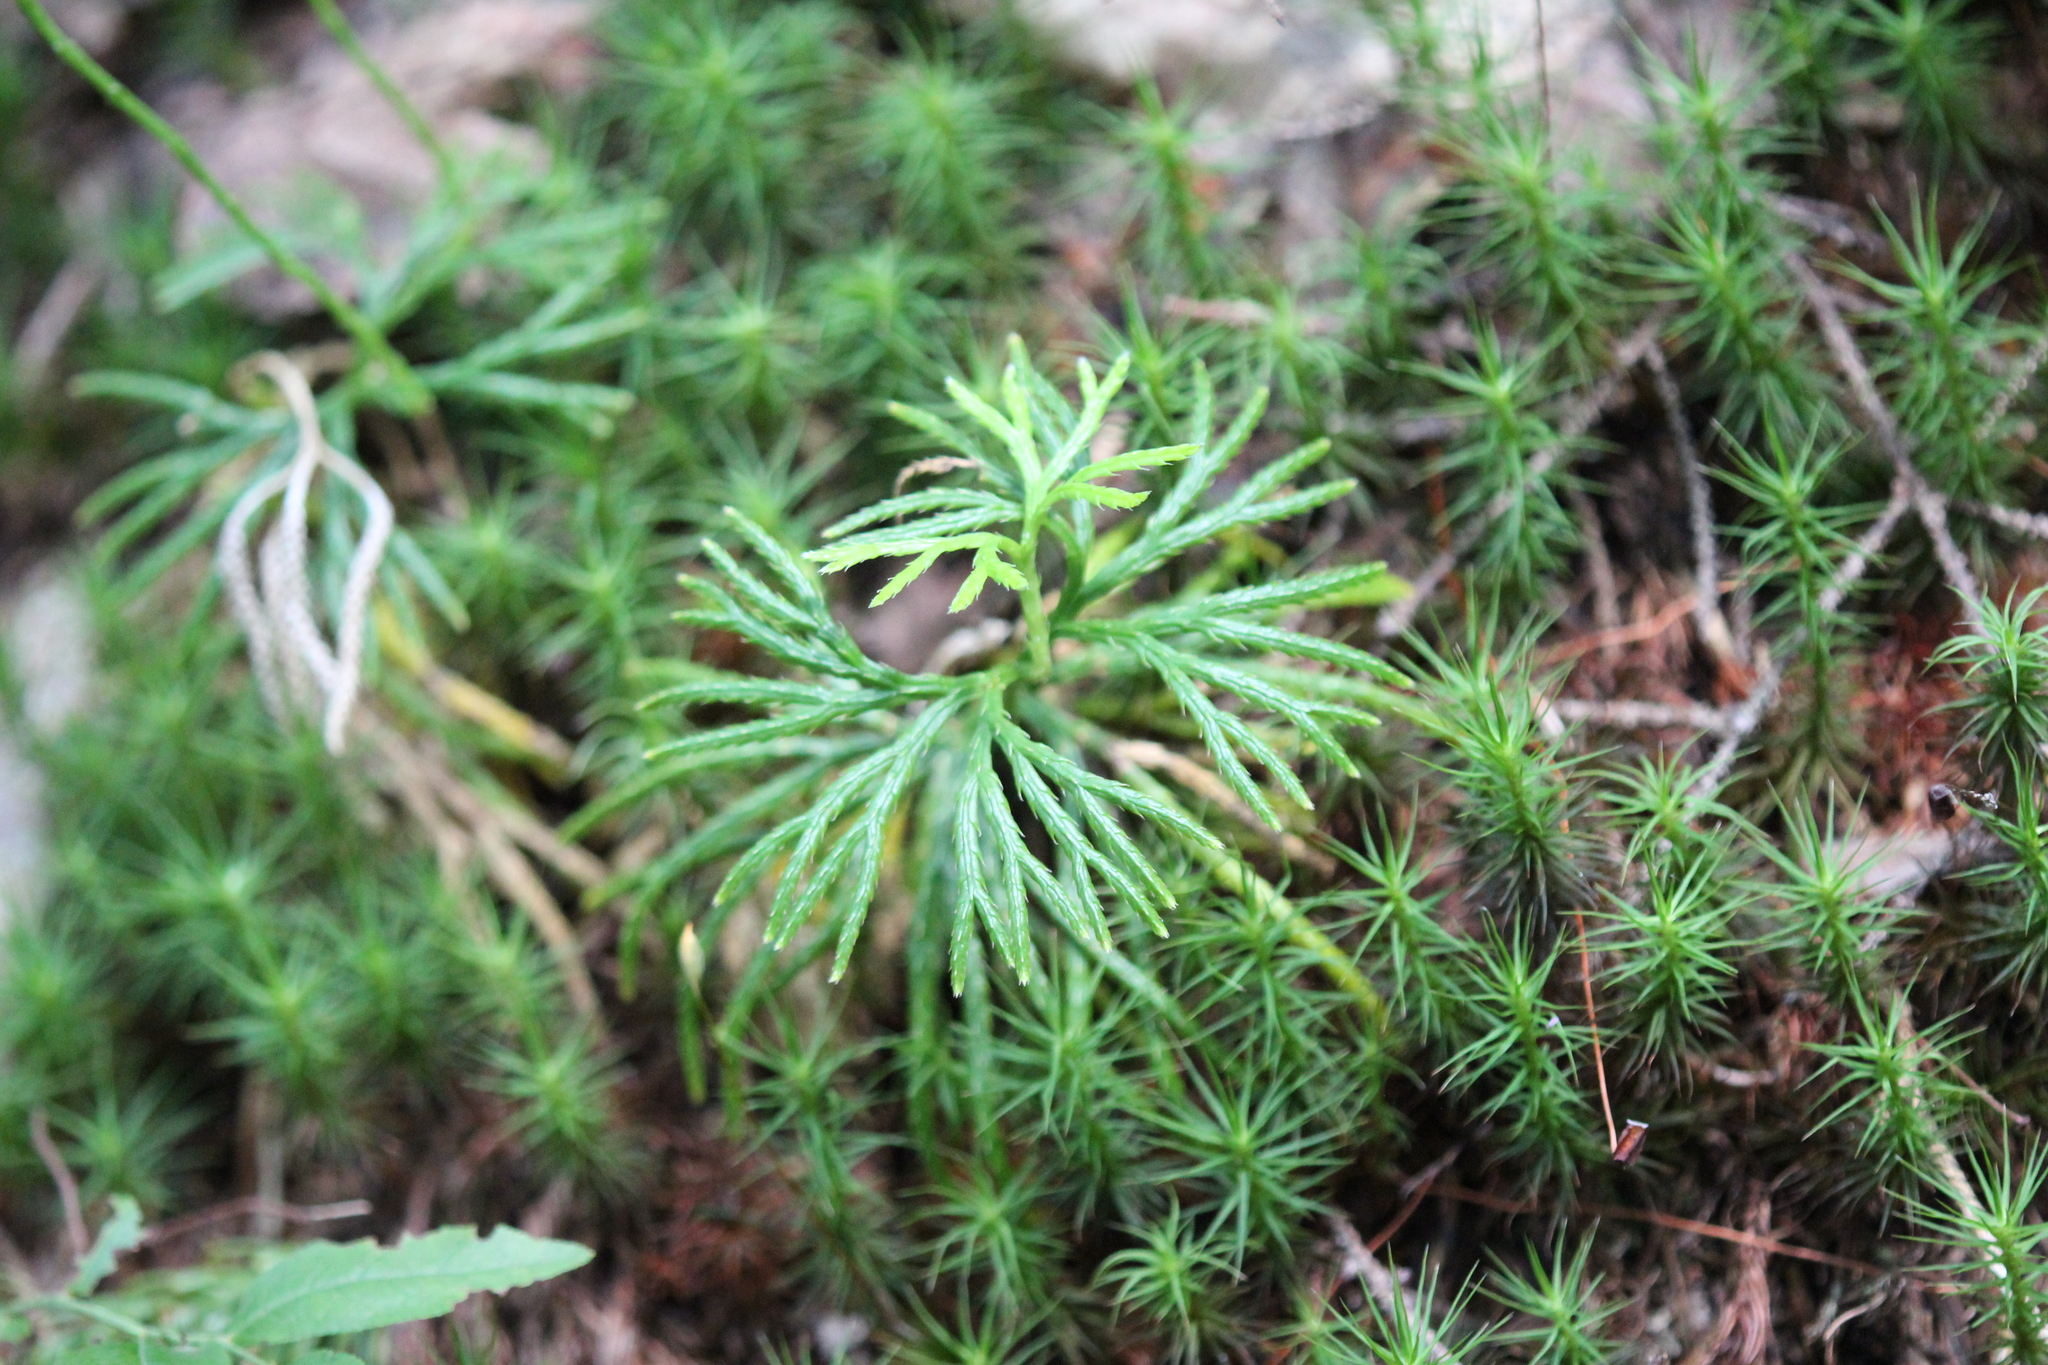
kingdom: Plantae
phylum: Tracheophyta
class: Lycopodiopsida
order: Lycopodiales
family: Lycopodiaceae
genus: Diphasiastrum
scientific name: Diphasiastrum digitatum
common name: Southern running-pine
